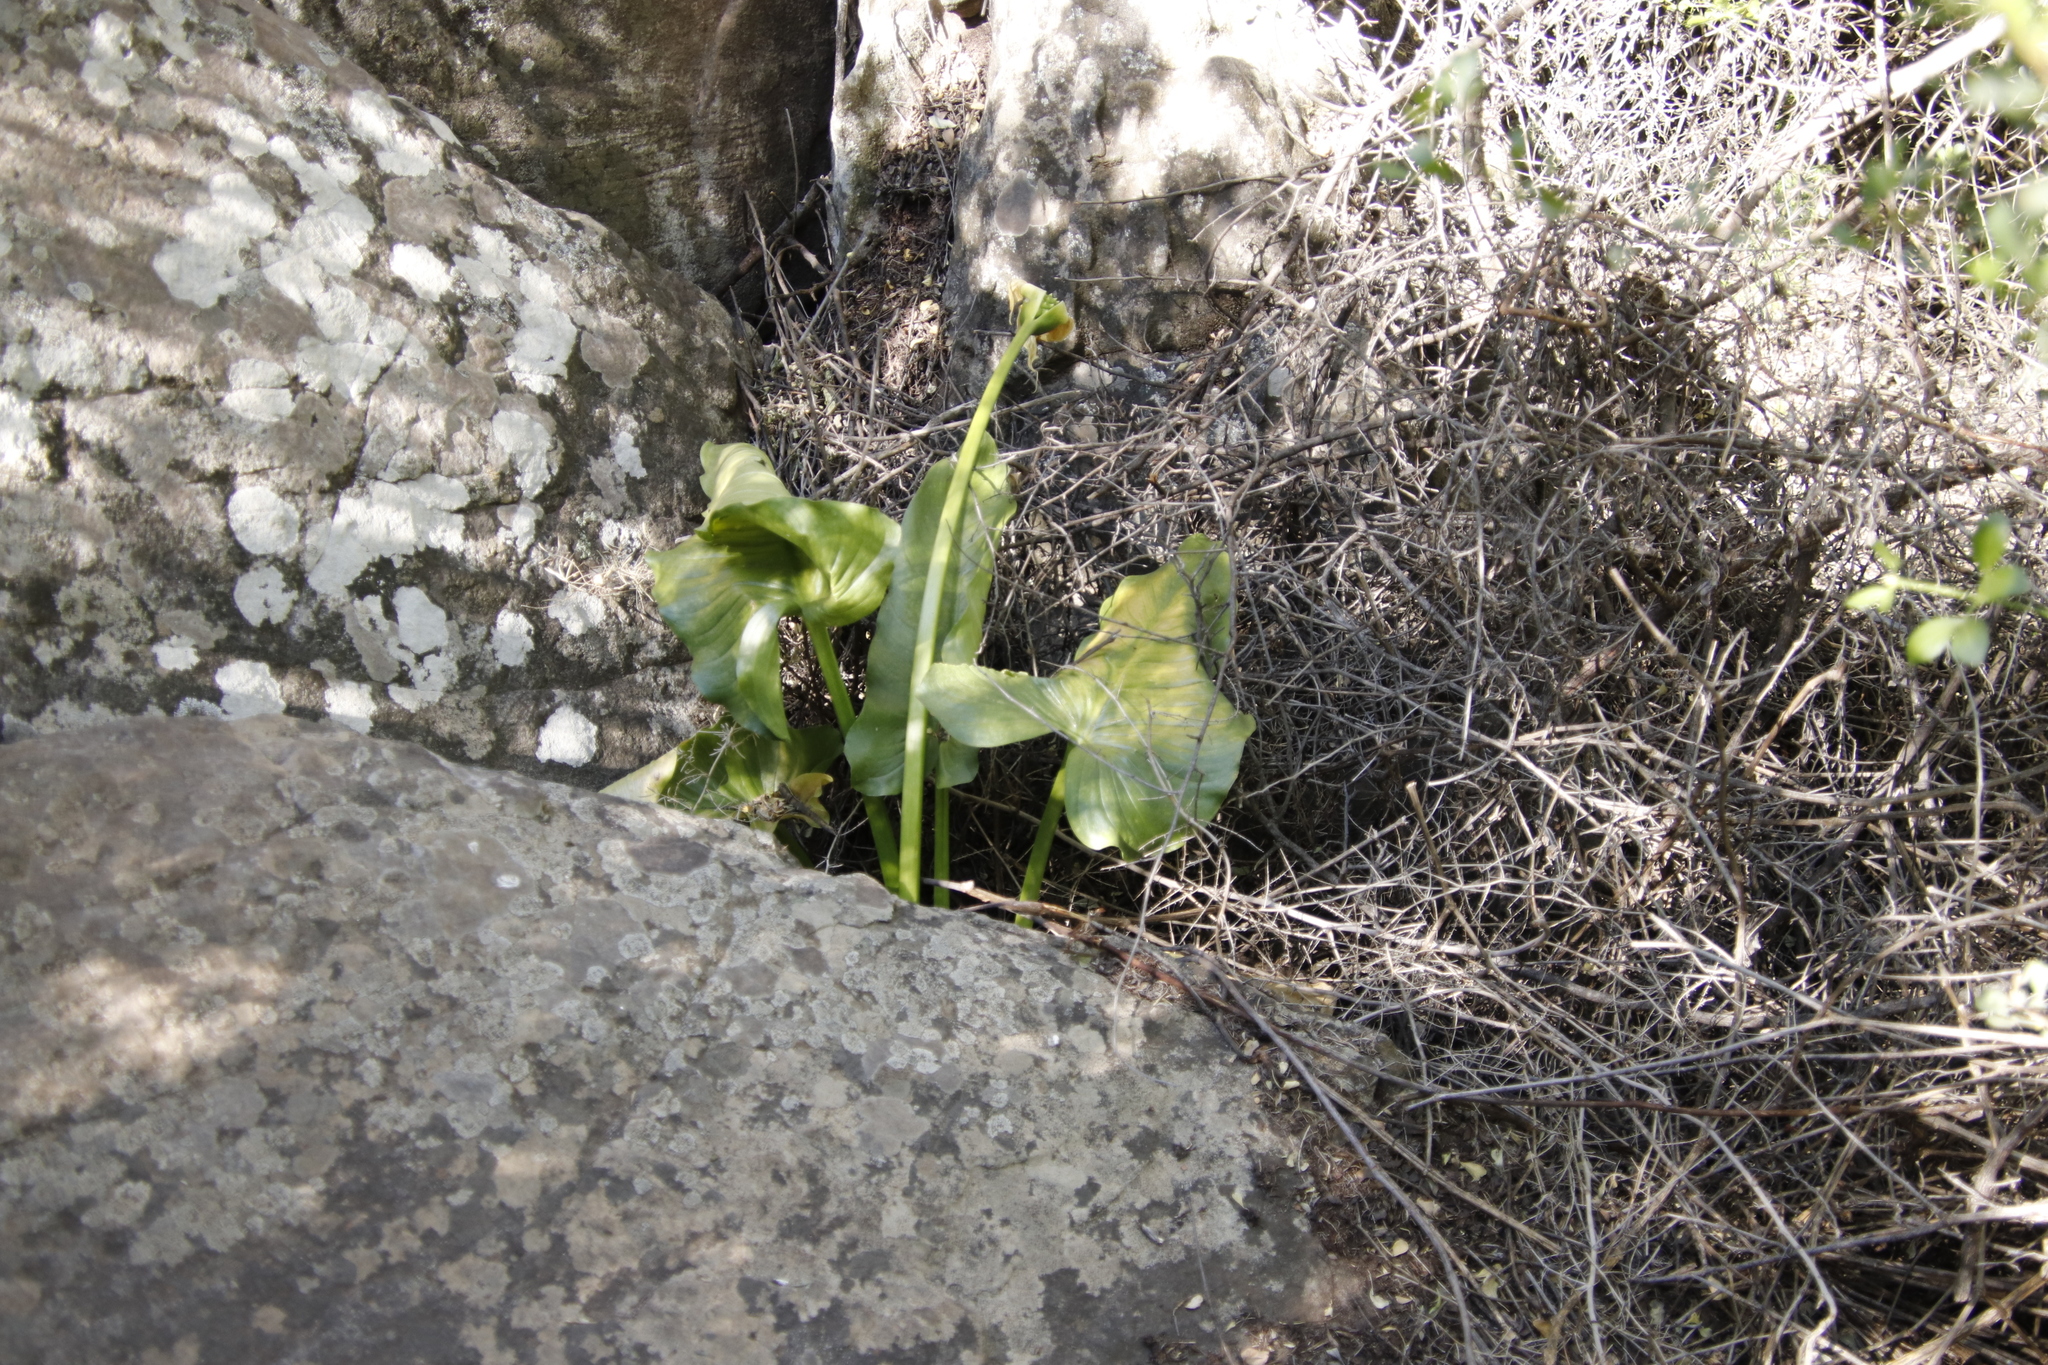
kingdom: Plantae
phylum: Tracheophyta
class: Liliopsida
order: Alismatales
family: Araceae
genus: Zantedeschia
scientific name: Zantedeschia aethiopica
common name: Altar-lily
